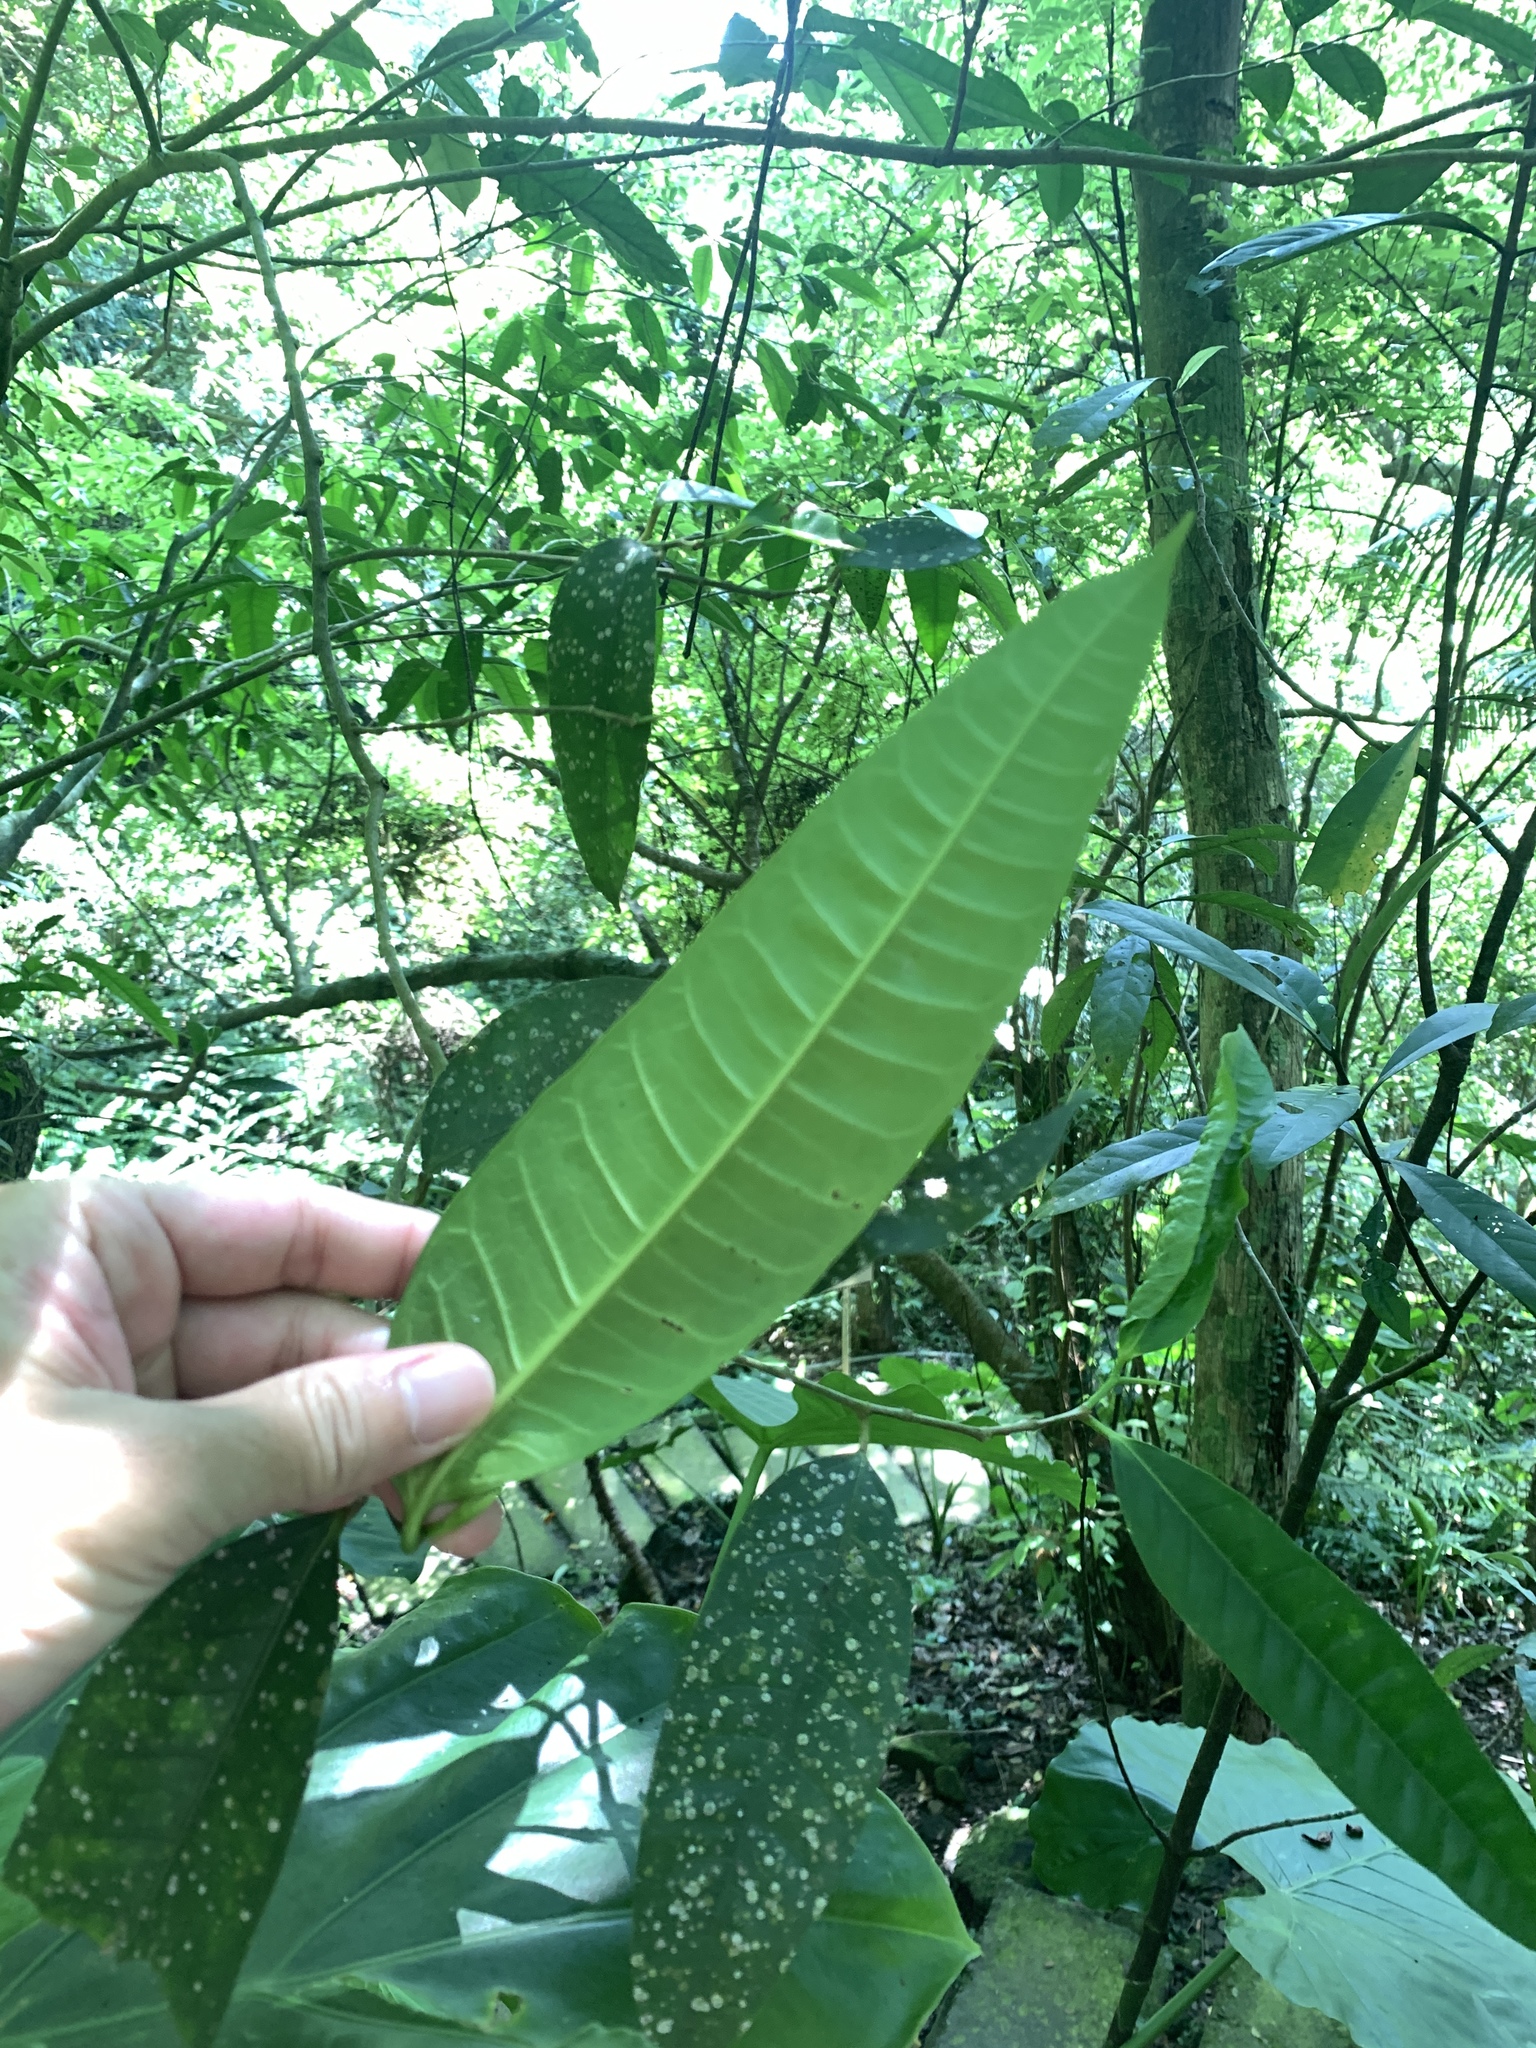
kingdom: Plantae
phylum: Tracheophyta
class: Magnoliopsida
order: Rosales
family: Moraceae
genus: Ficus
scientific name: Ficus virgata
